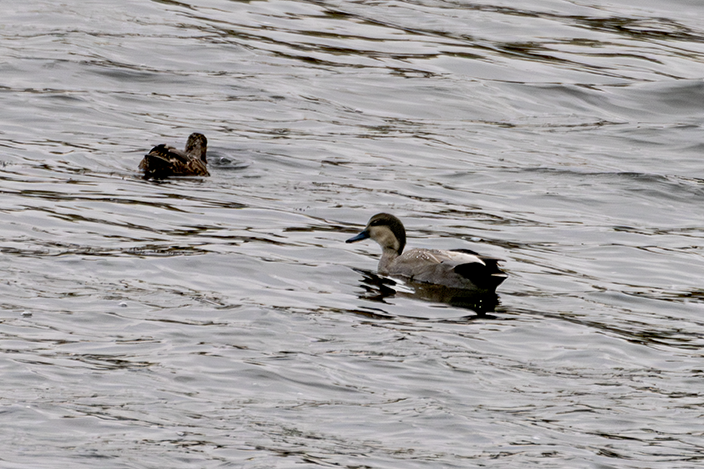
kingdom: Animalia
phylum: Chordata
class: Aves
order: Anseriformes
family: Anatidae
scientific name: Anatidae
